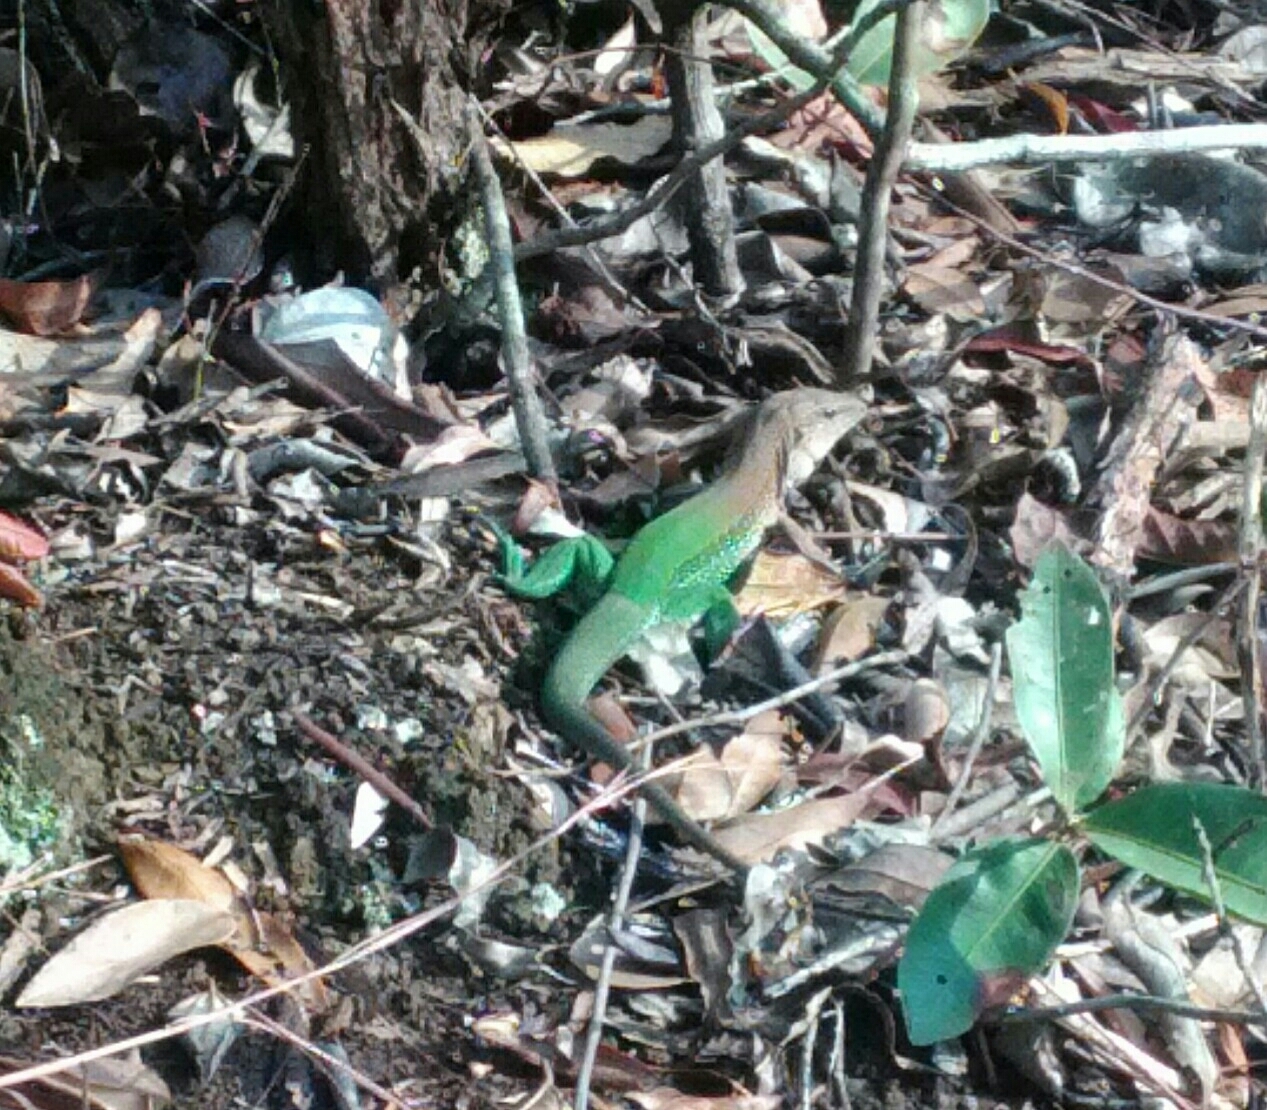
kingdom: Animalia
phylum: Chordata
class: Squamata
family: Teiidae
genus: Ameiva
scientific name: Ameiva ameiva
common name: Giant ameiva
